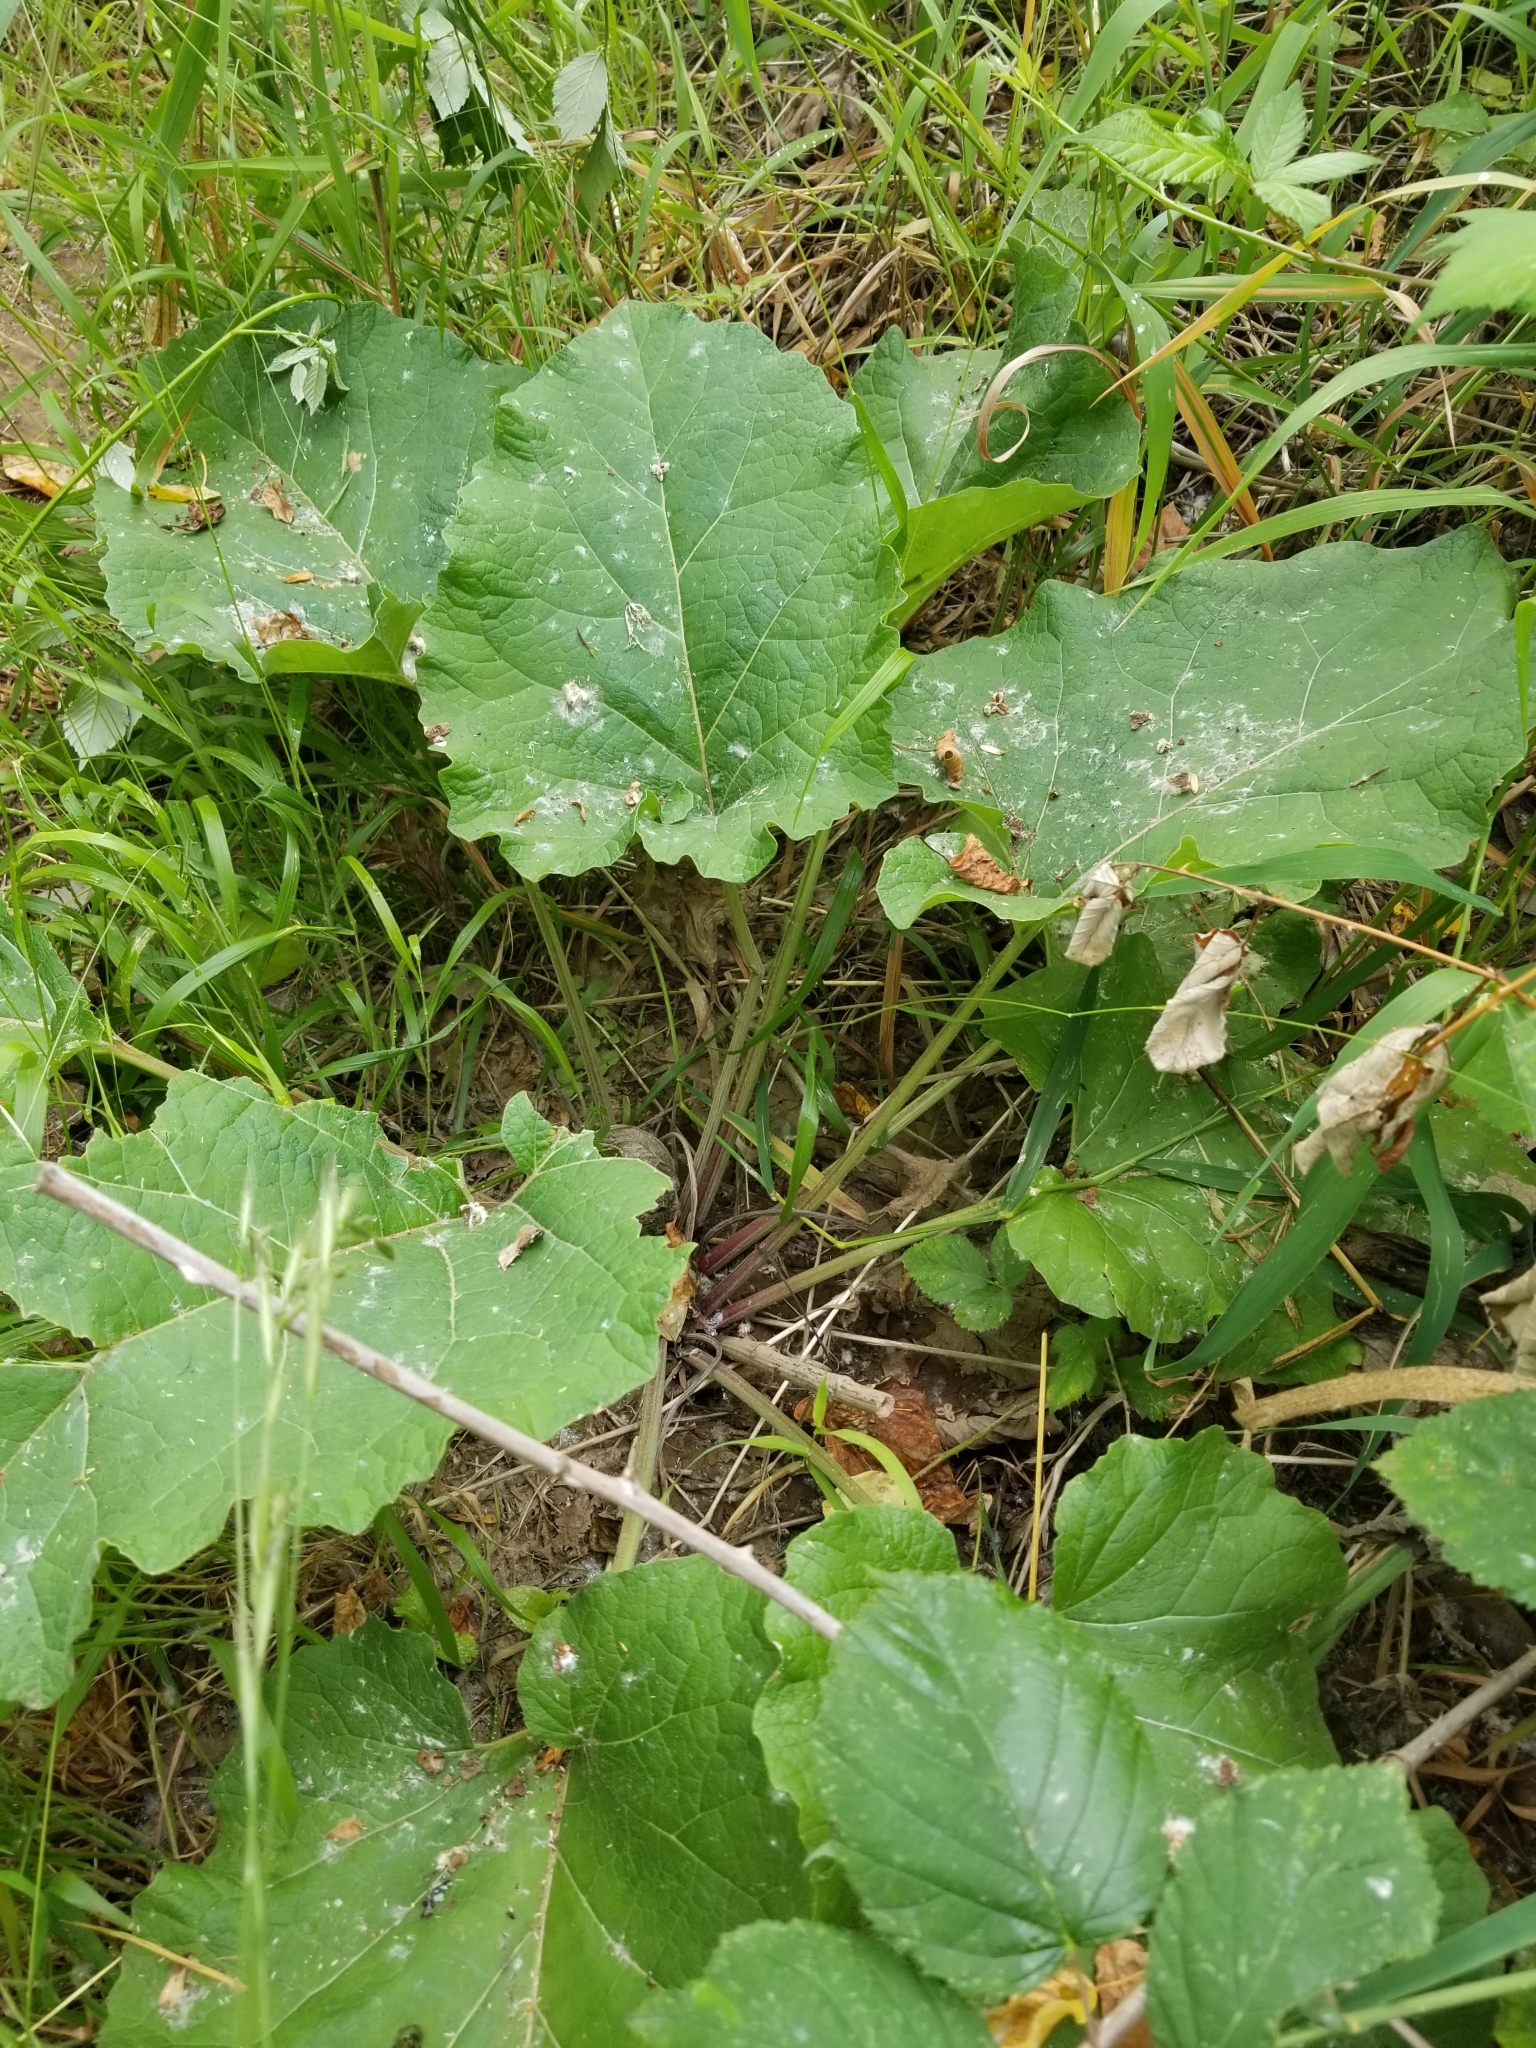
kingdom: Plantae
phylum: Tracheophyta
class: Magnoliopsida
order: Asterales
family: Asteraceae
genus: Arctium
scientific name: Arctium
